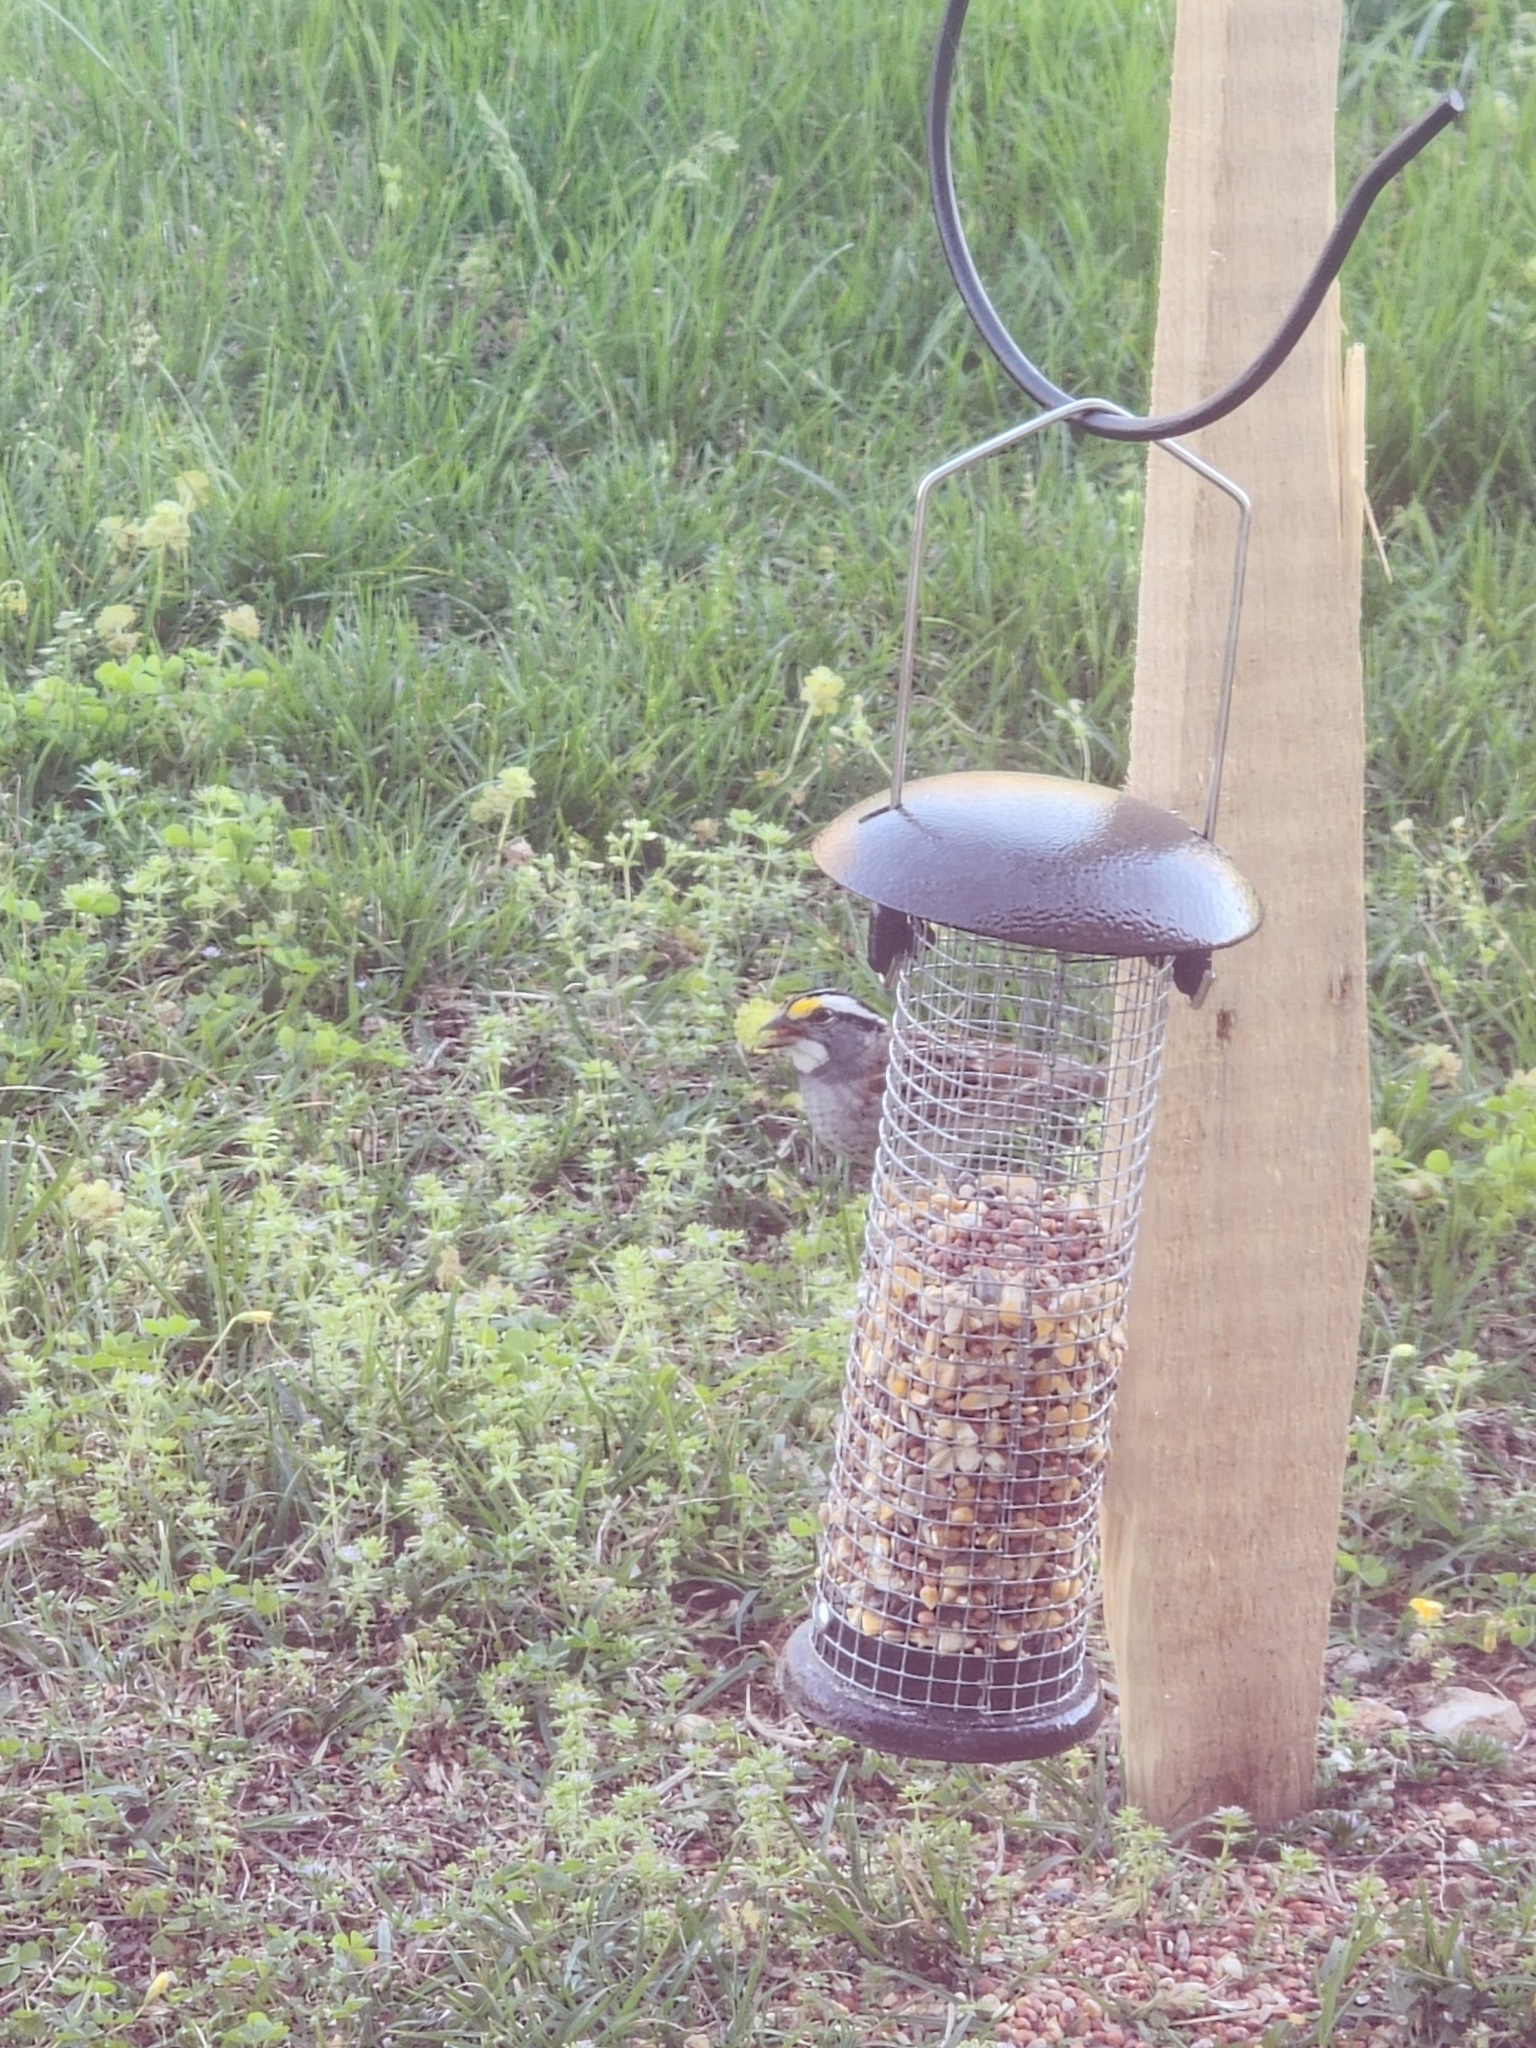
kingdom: Animalia
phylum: Chordata
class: Aves
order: Passeriformes
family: Passerellidae
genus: Zonotrichia
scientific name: Zonotrichia albicollis
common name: White-throated sparrow
